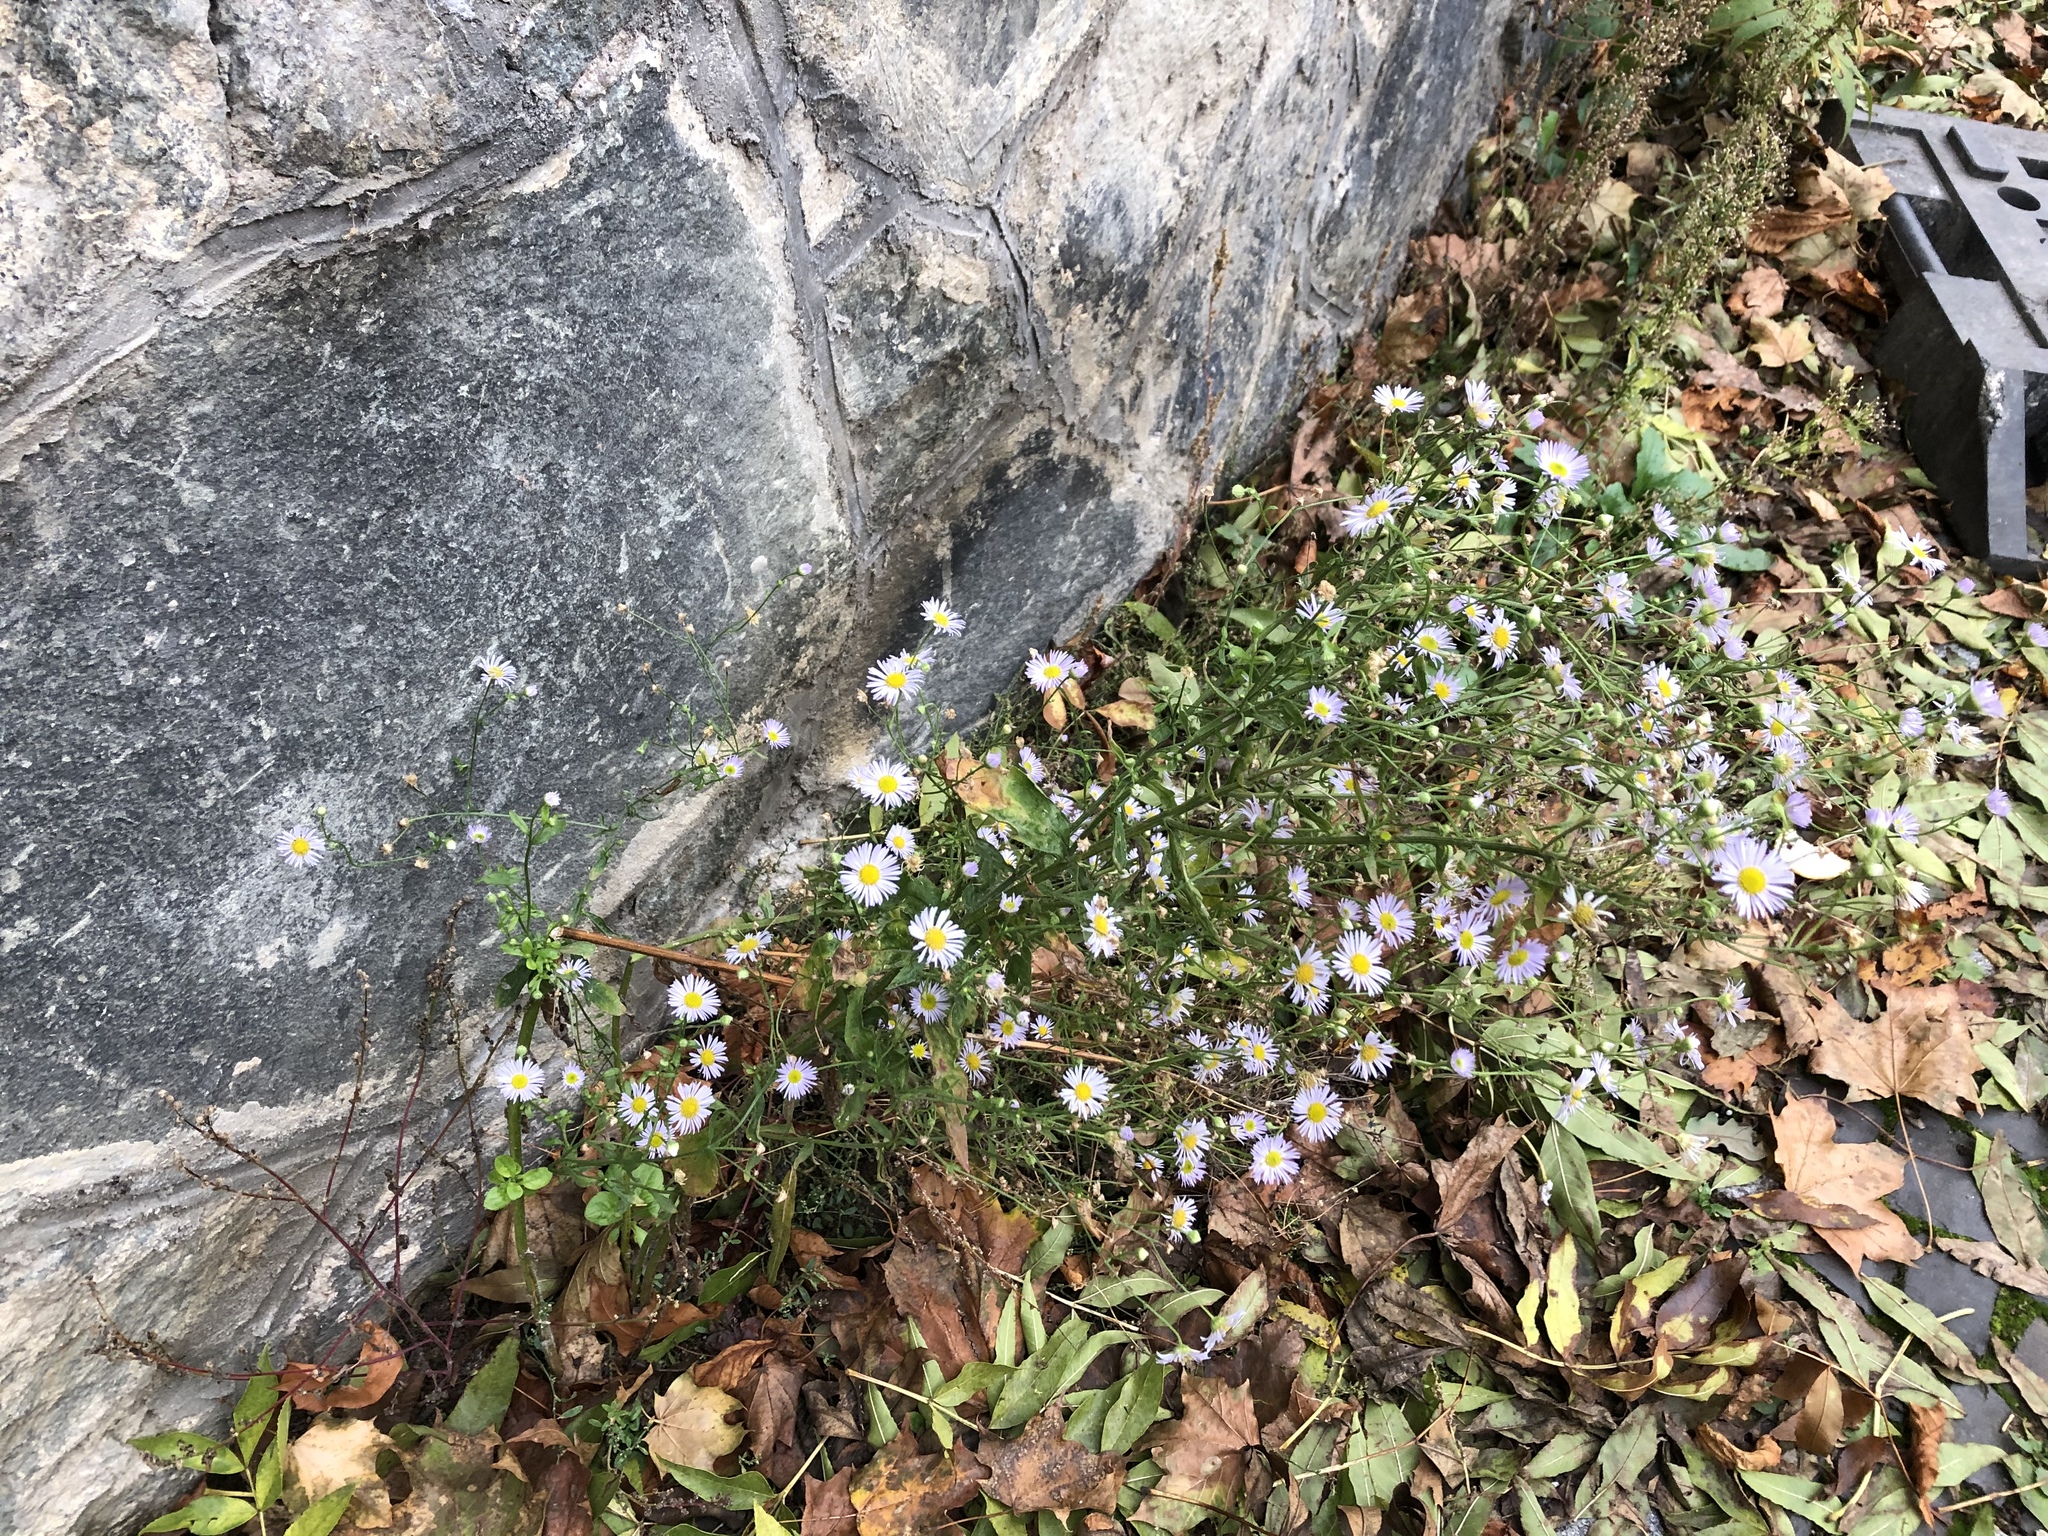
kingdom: Plantae
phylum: Tracheophyta
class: Magnoliopsida
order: Asterales
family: Asteraceae
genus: Erigeron
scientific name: Erigeron annuus
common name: Tall fleabane
